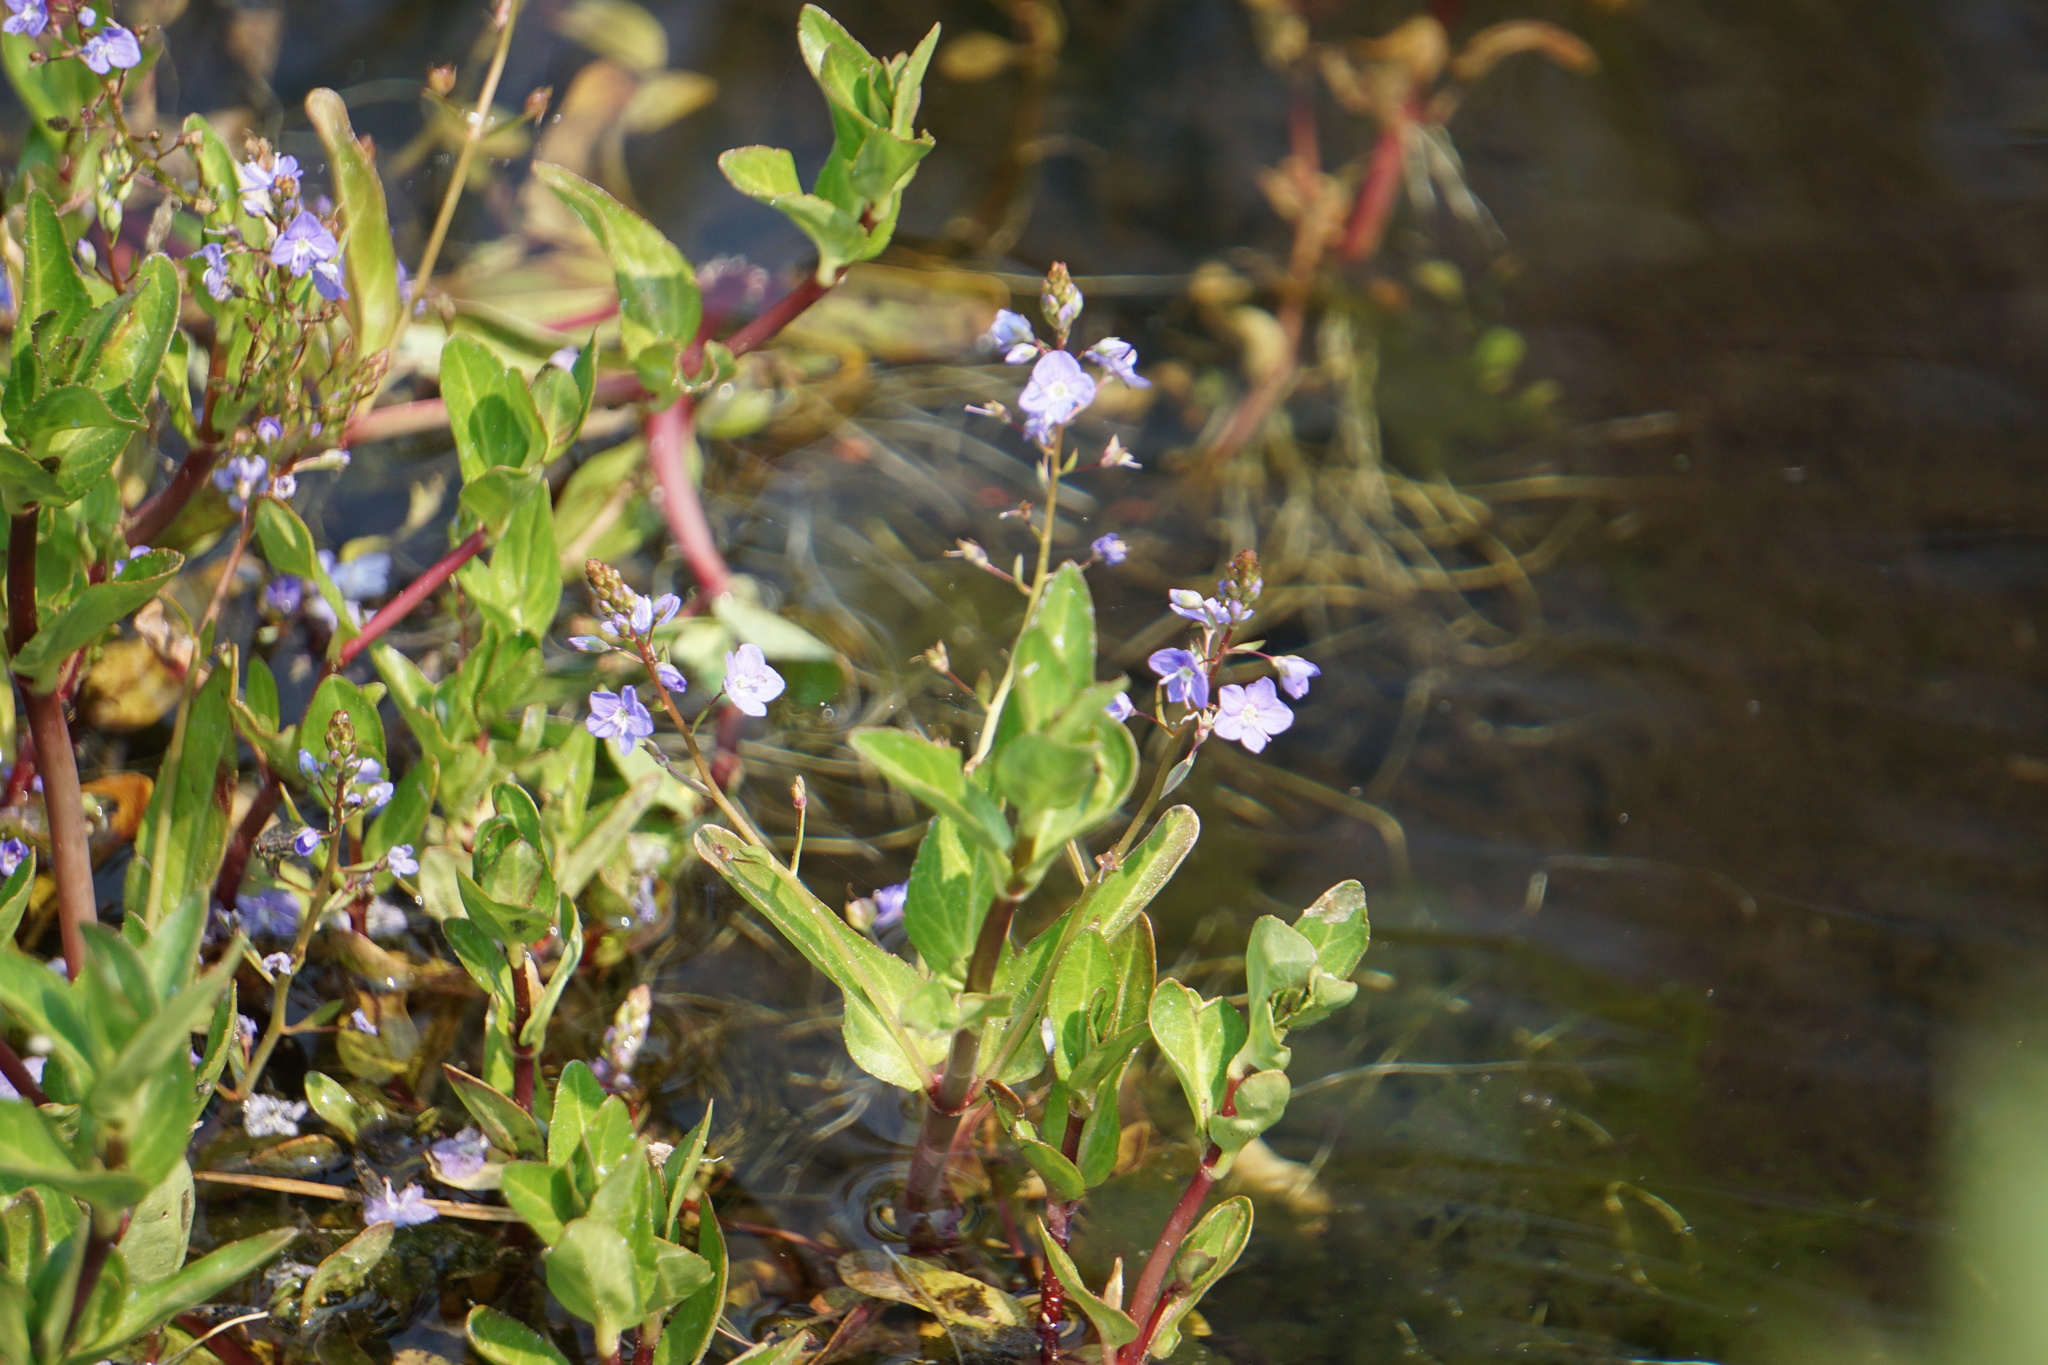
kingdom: Plantae
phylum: Tracheophyta
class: Magnoliopsida
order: Lamiales
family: Plantaginaceae
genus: Veronica
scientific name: Veronica americana
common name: American brooklime
